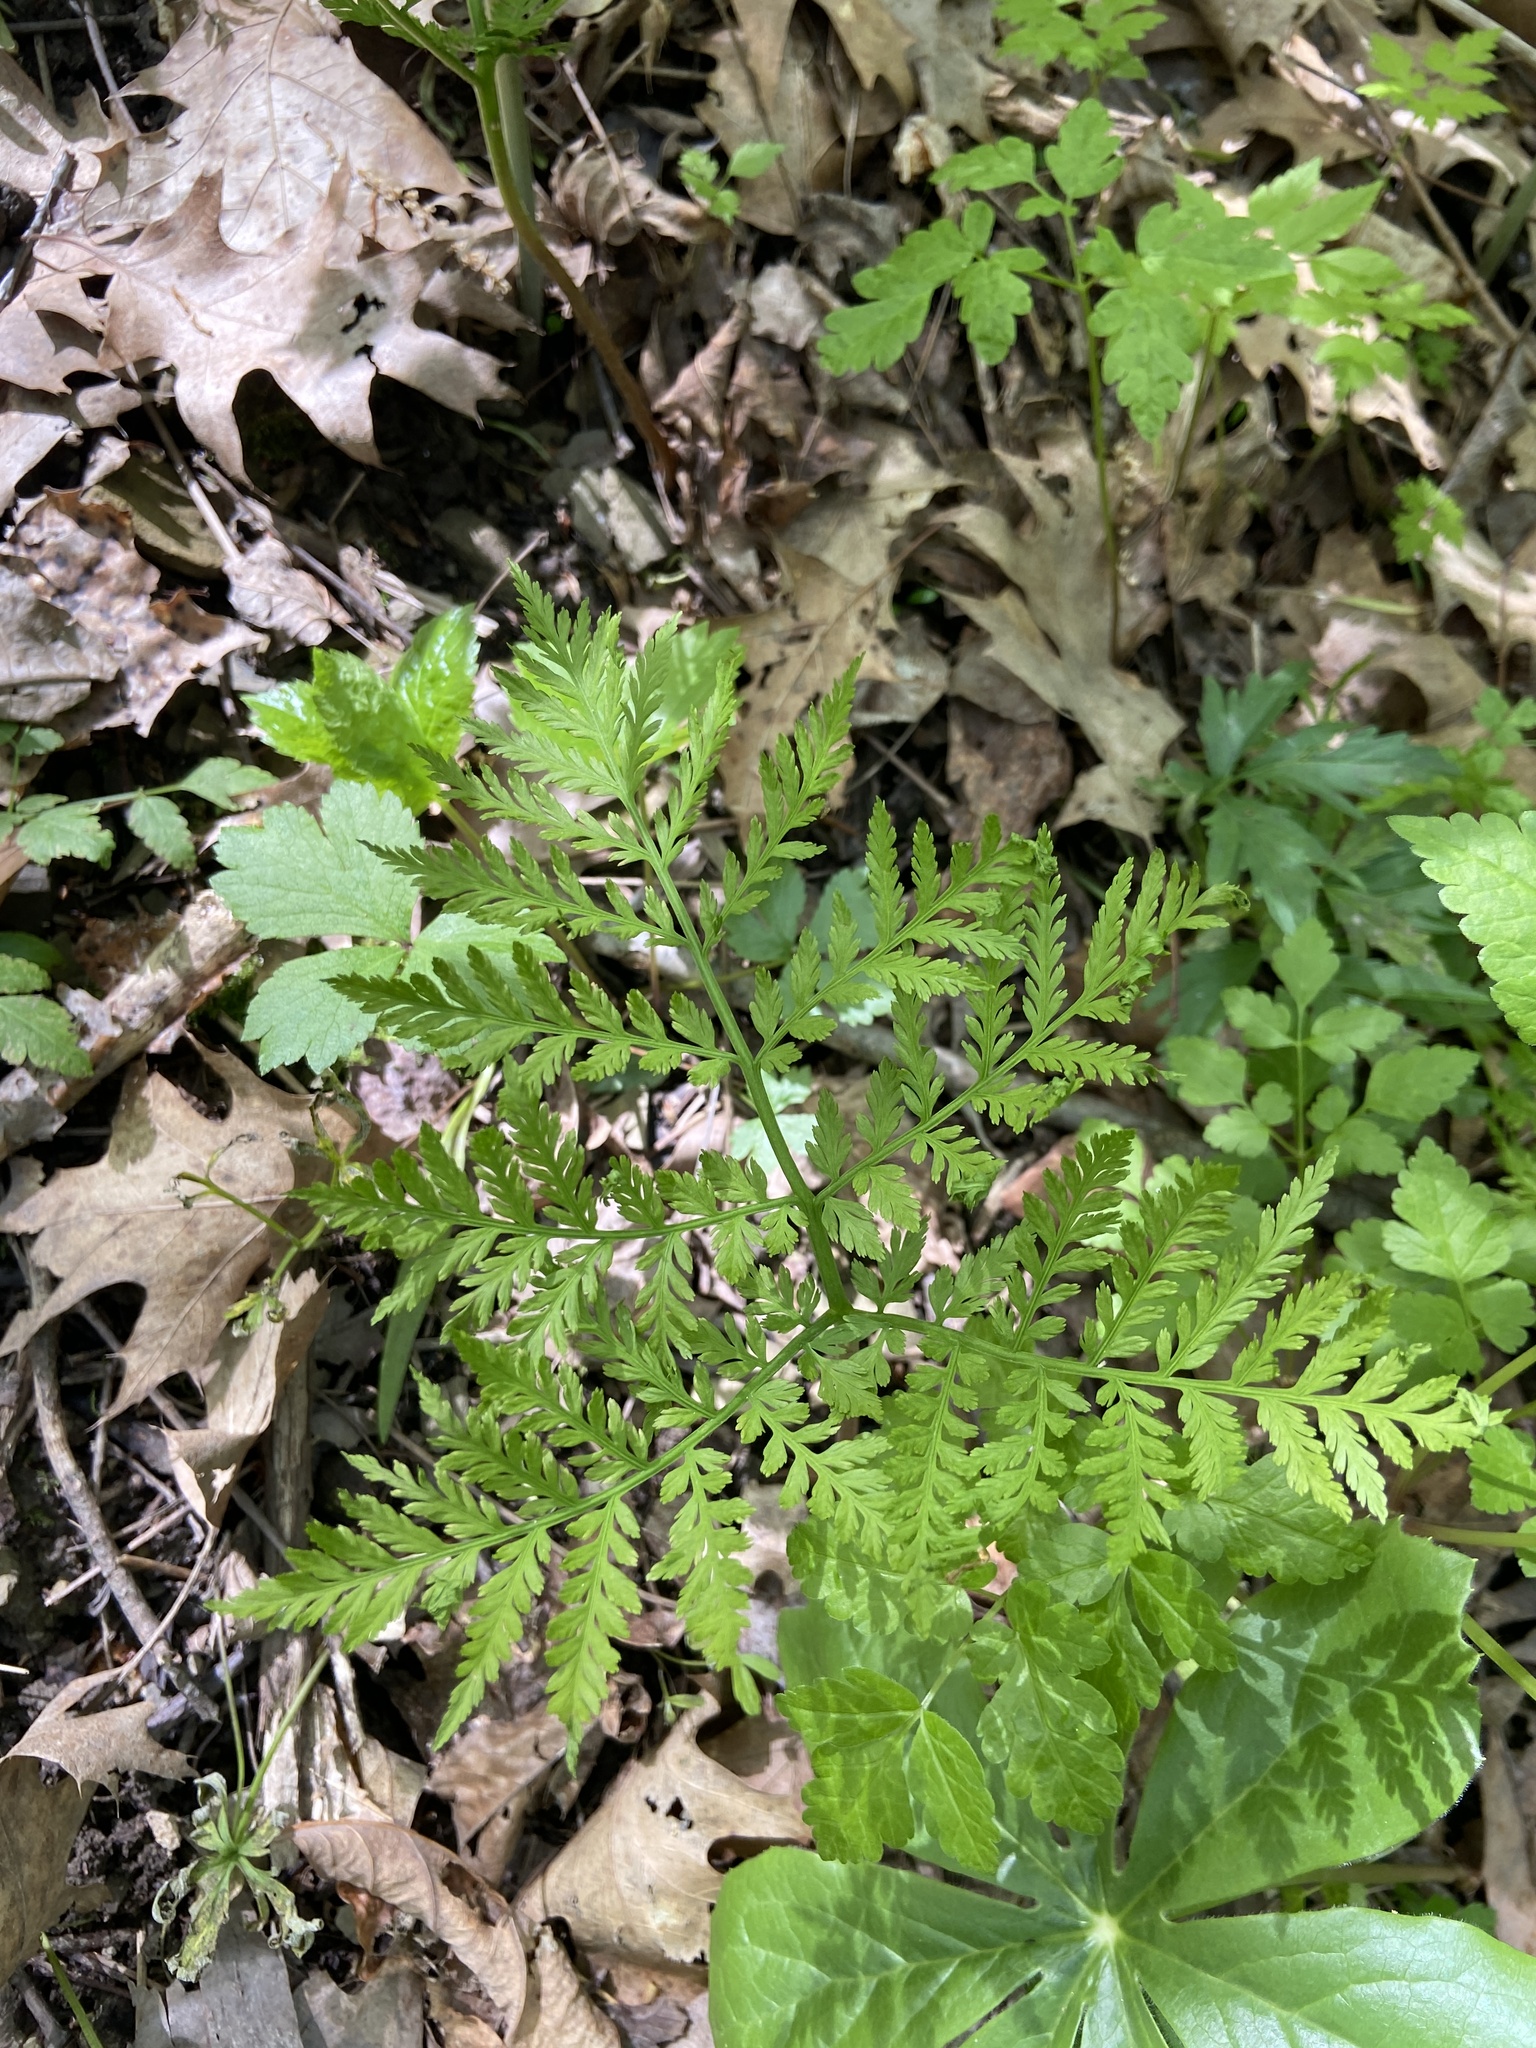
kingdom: Plantae
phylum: Tracheophyta
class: Polypodiopsida
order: Ophioglossales
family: Ophioglossaceae
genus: Botrypus
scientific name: Botrypus virginianus
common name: Common grapefern
